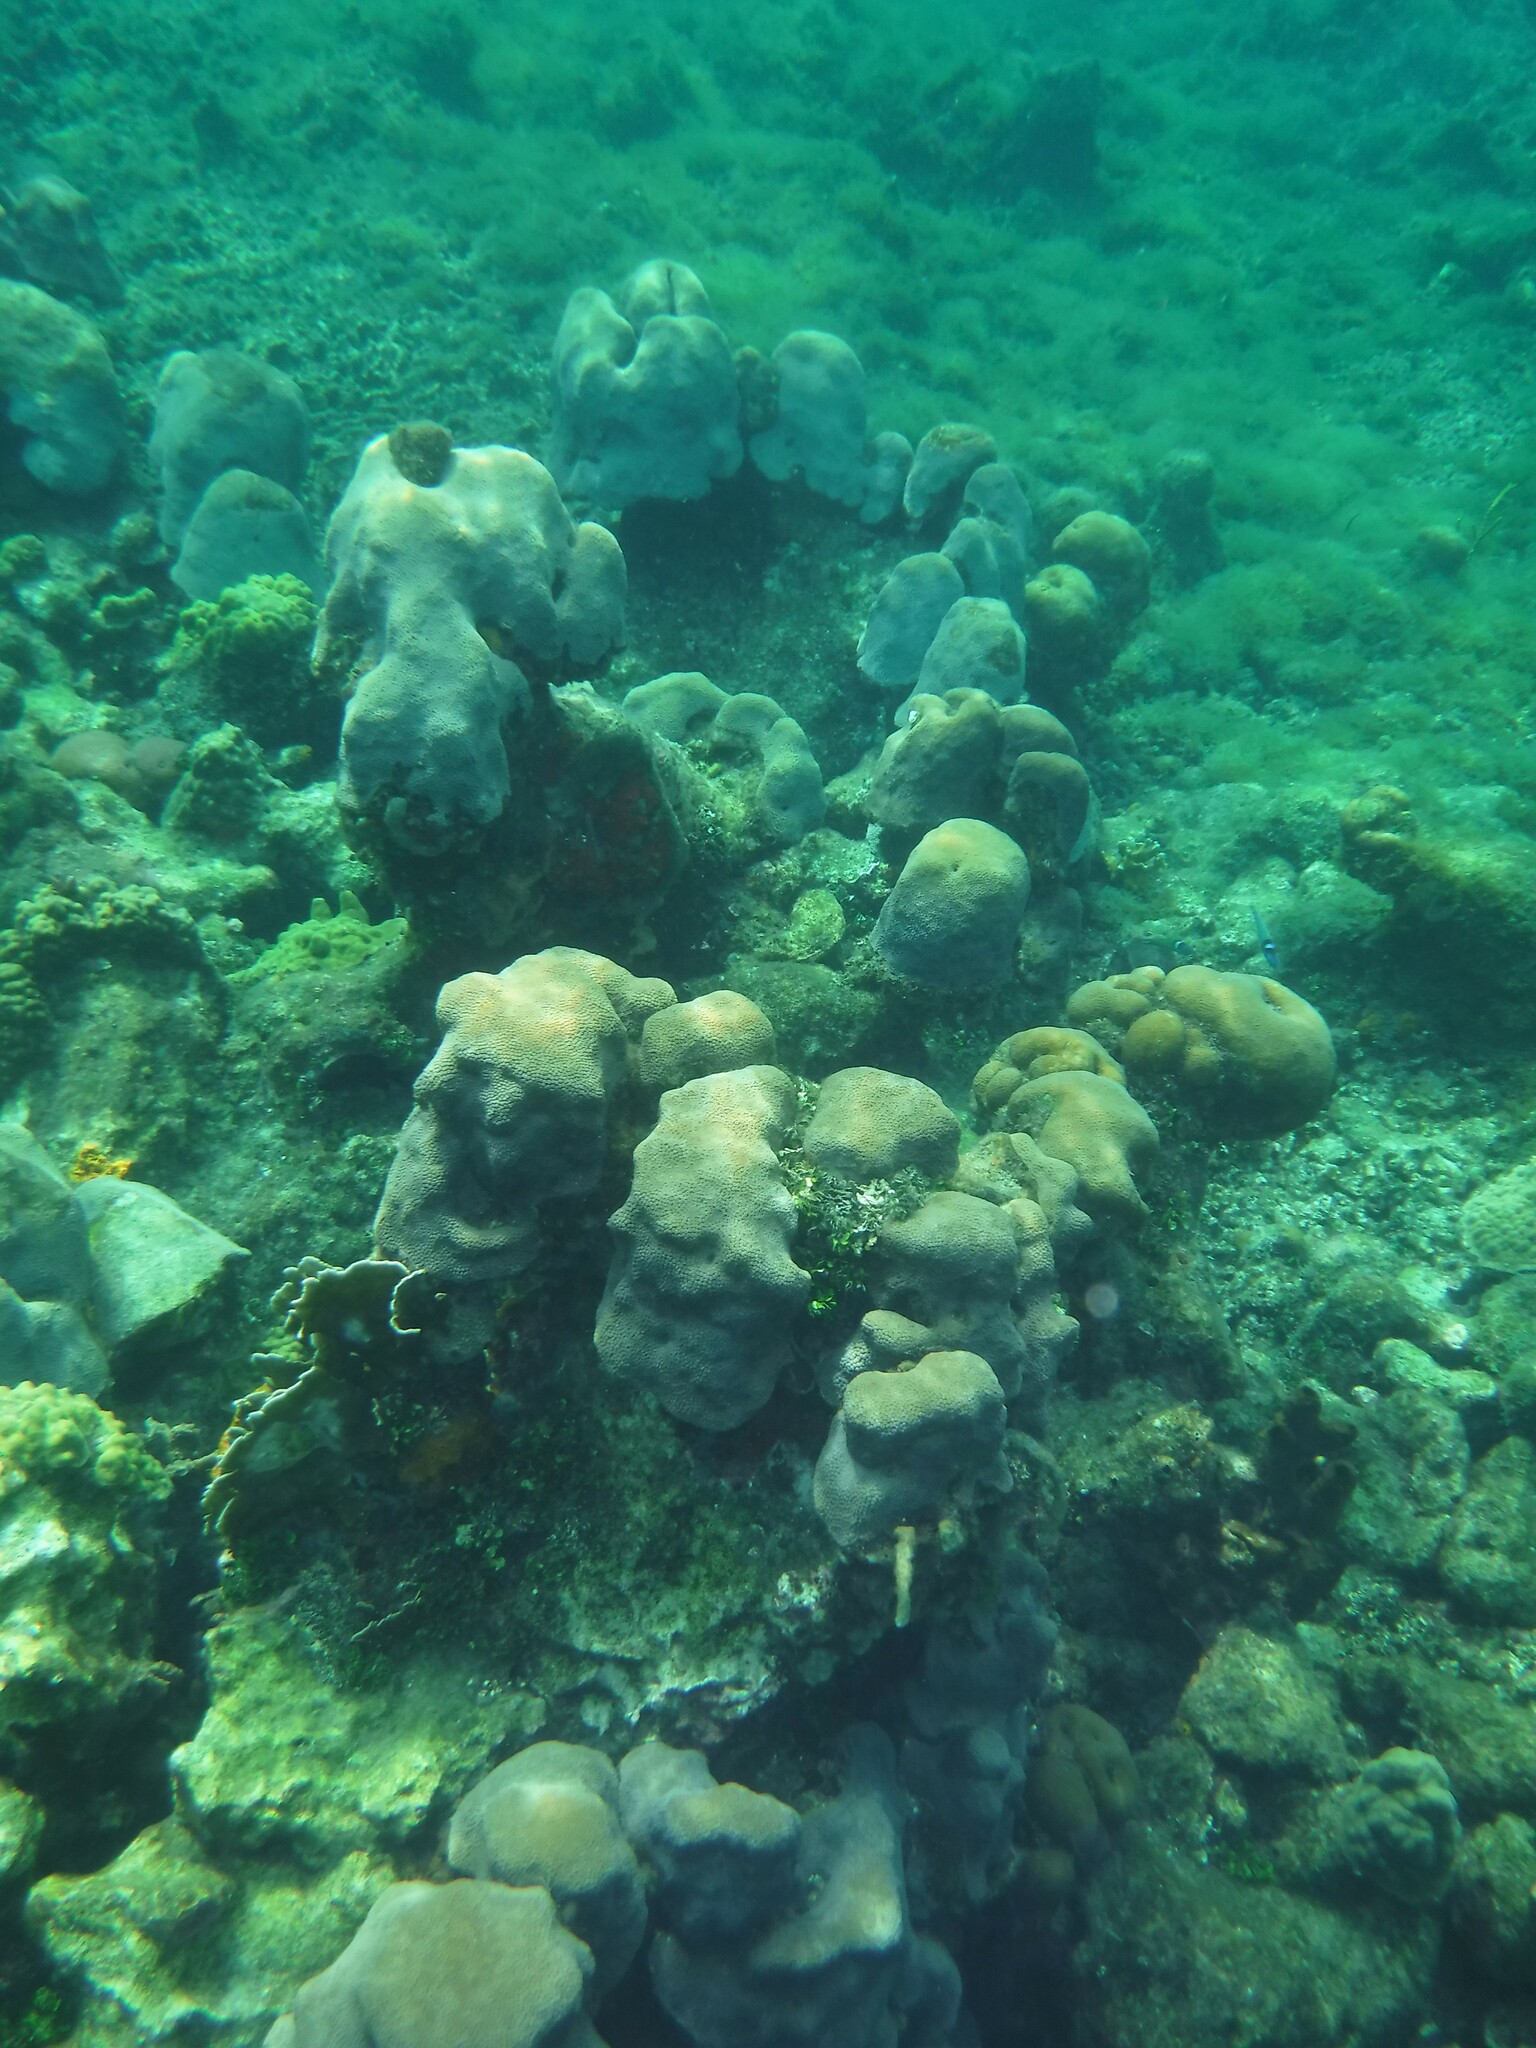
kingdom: Animalia
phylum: Cnidaria
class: Anthozoa
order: Scleractinia
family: Merulinidae
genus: Orbicella
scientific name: Orbicella annularis
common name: Boulder star coral
